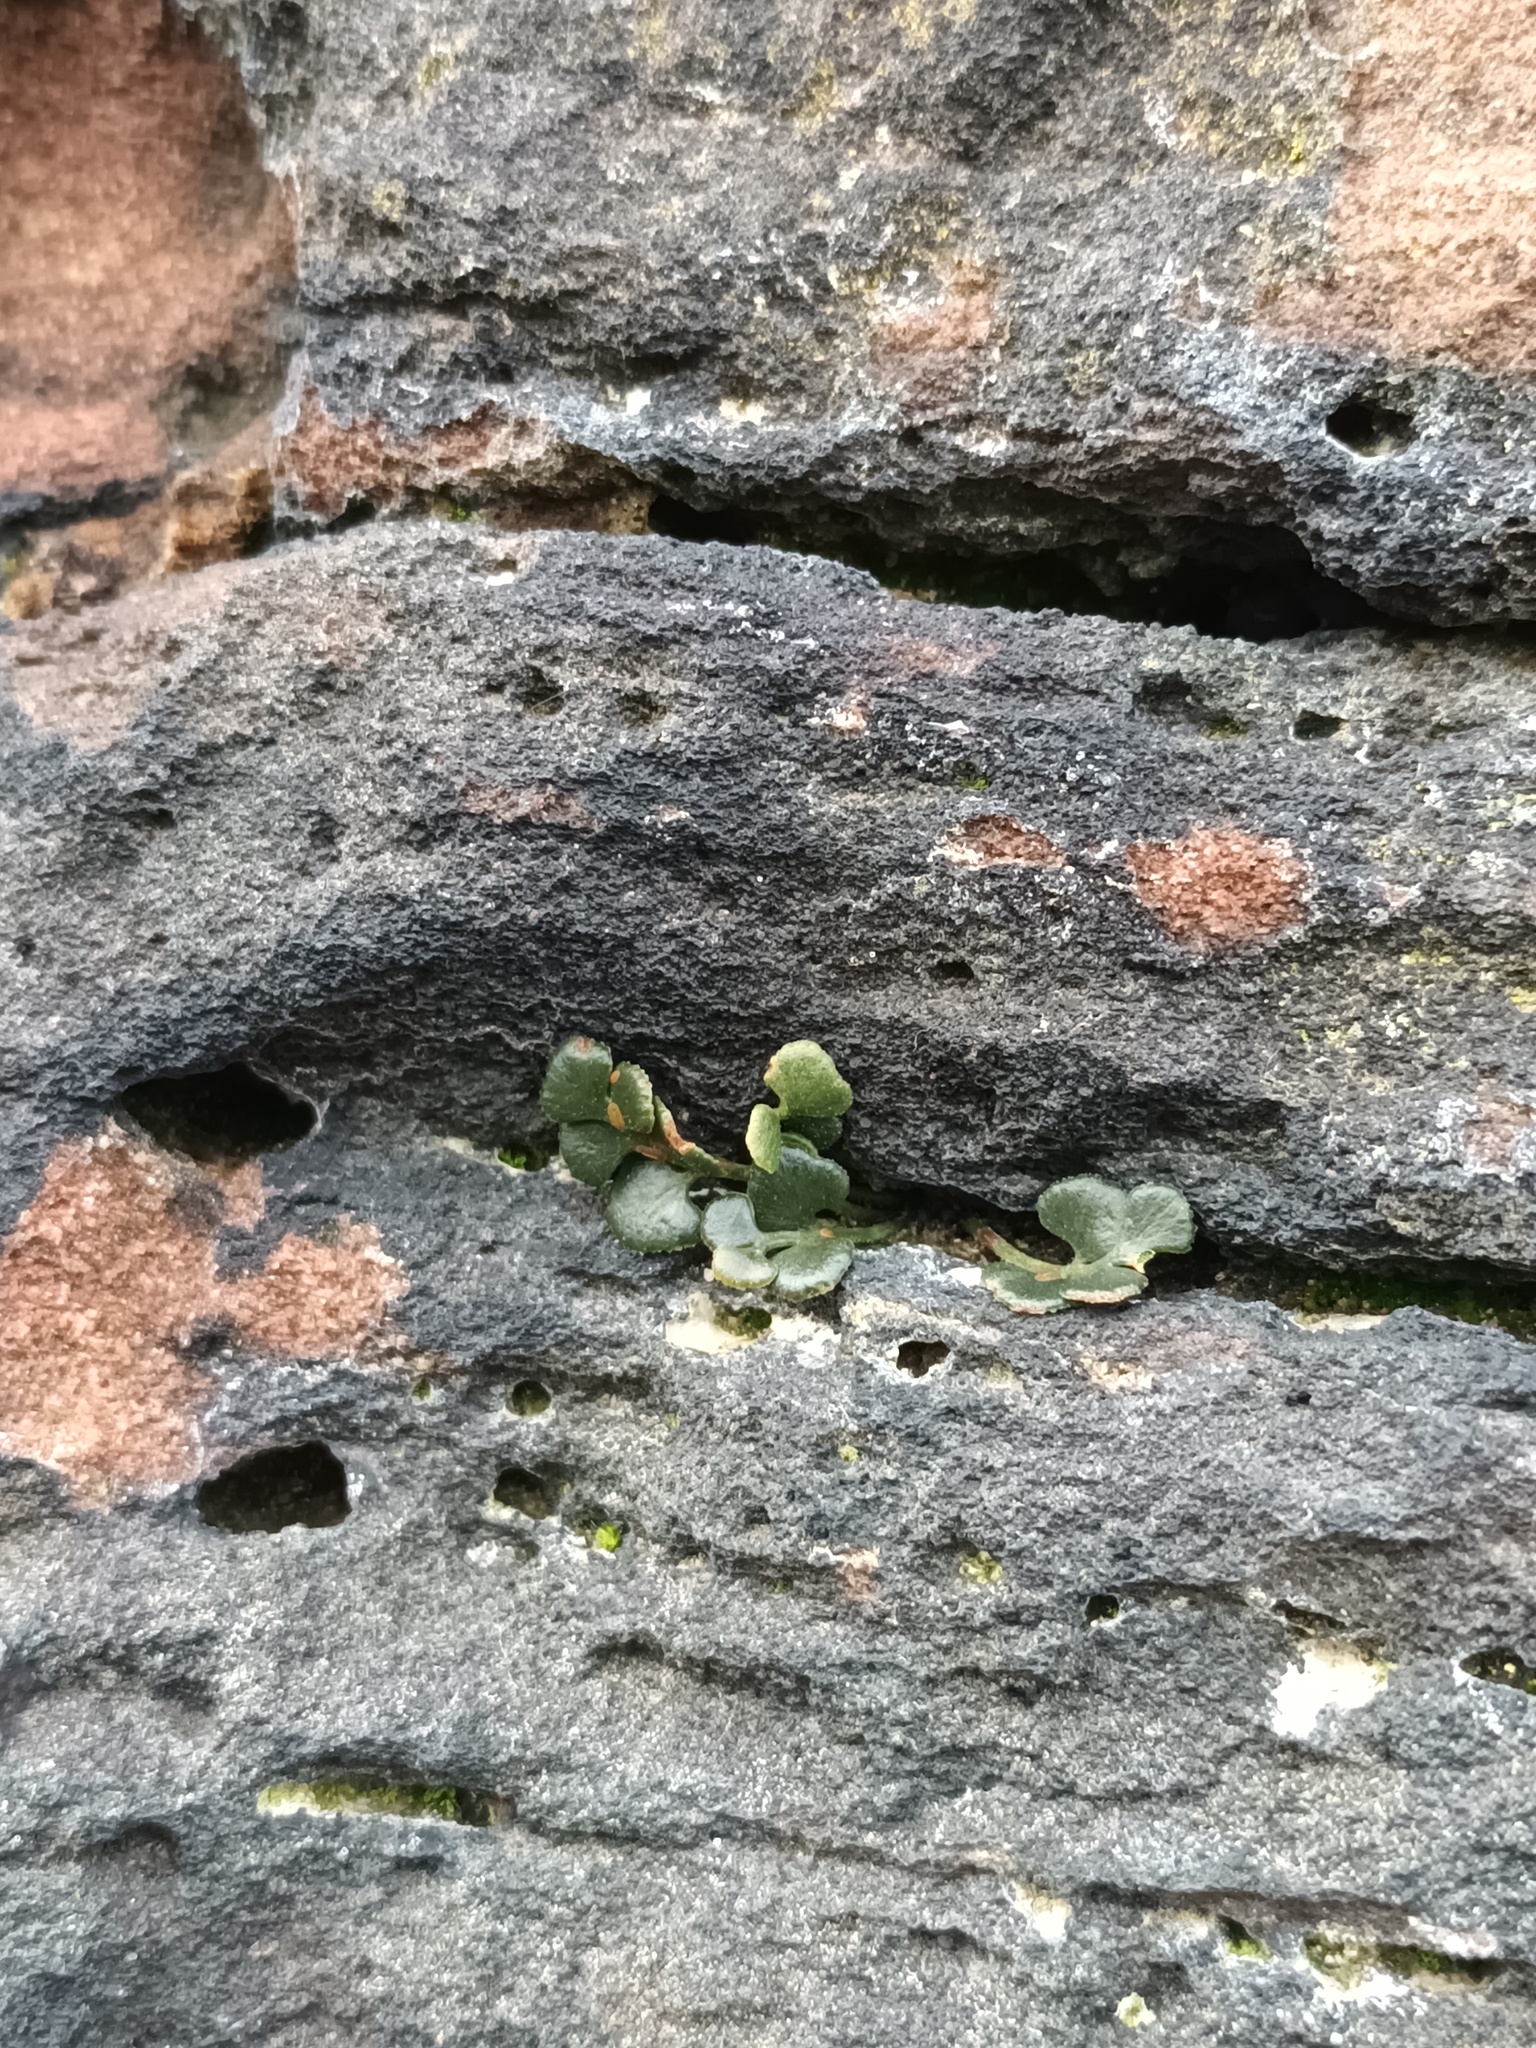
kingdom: Plantae
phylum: Tracheophyta
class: Polypodiopsida
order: Polypodiales
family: Aspleniaceae
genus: Asplenium
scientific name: Asplenium ruta-muraria
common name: Wall-rue
